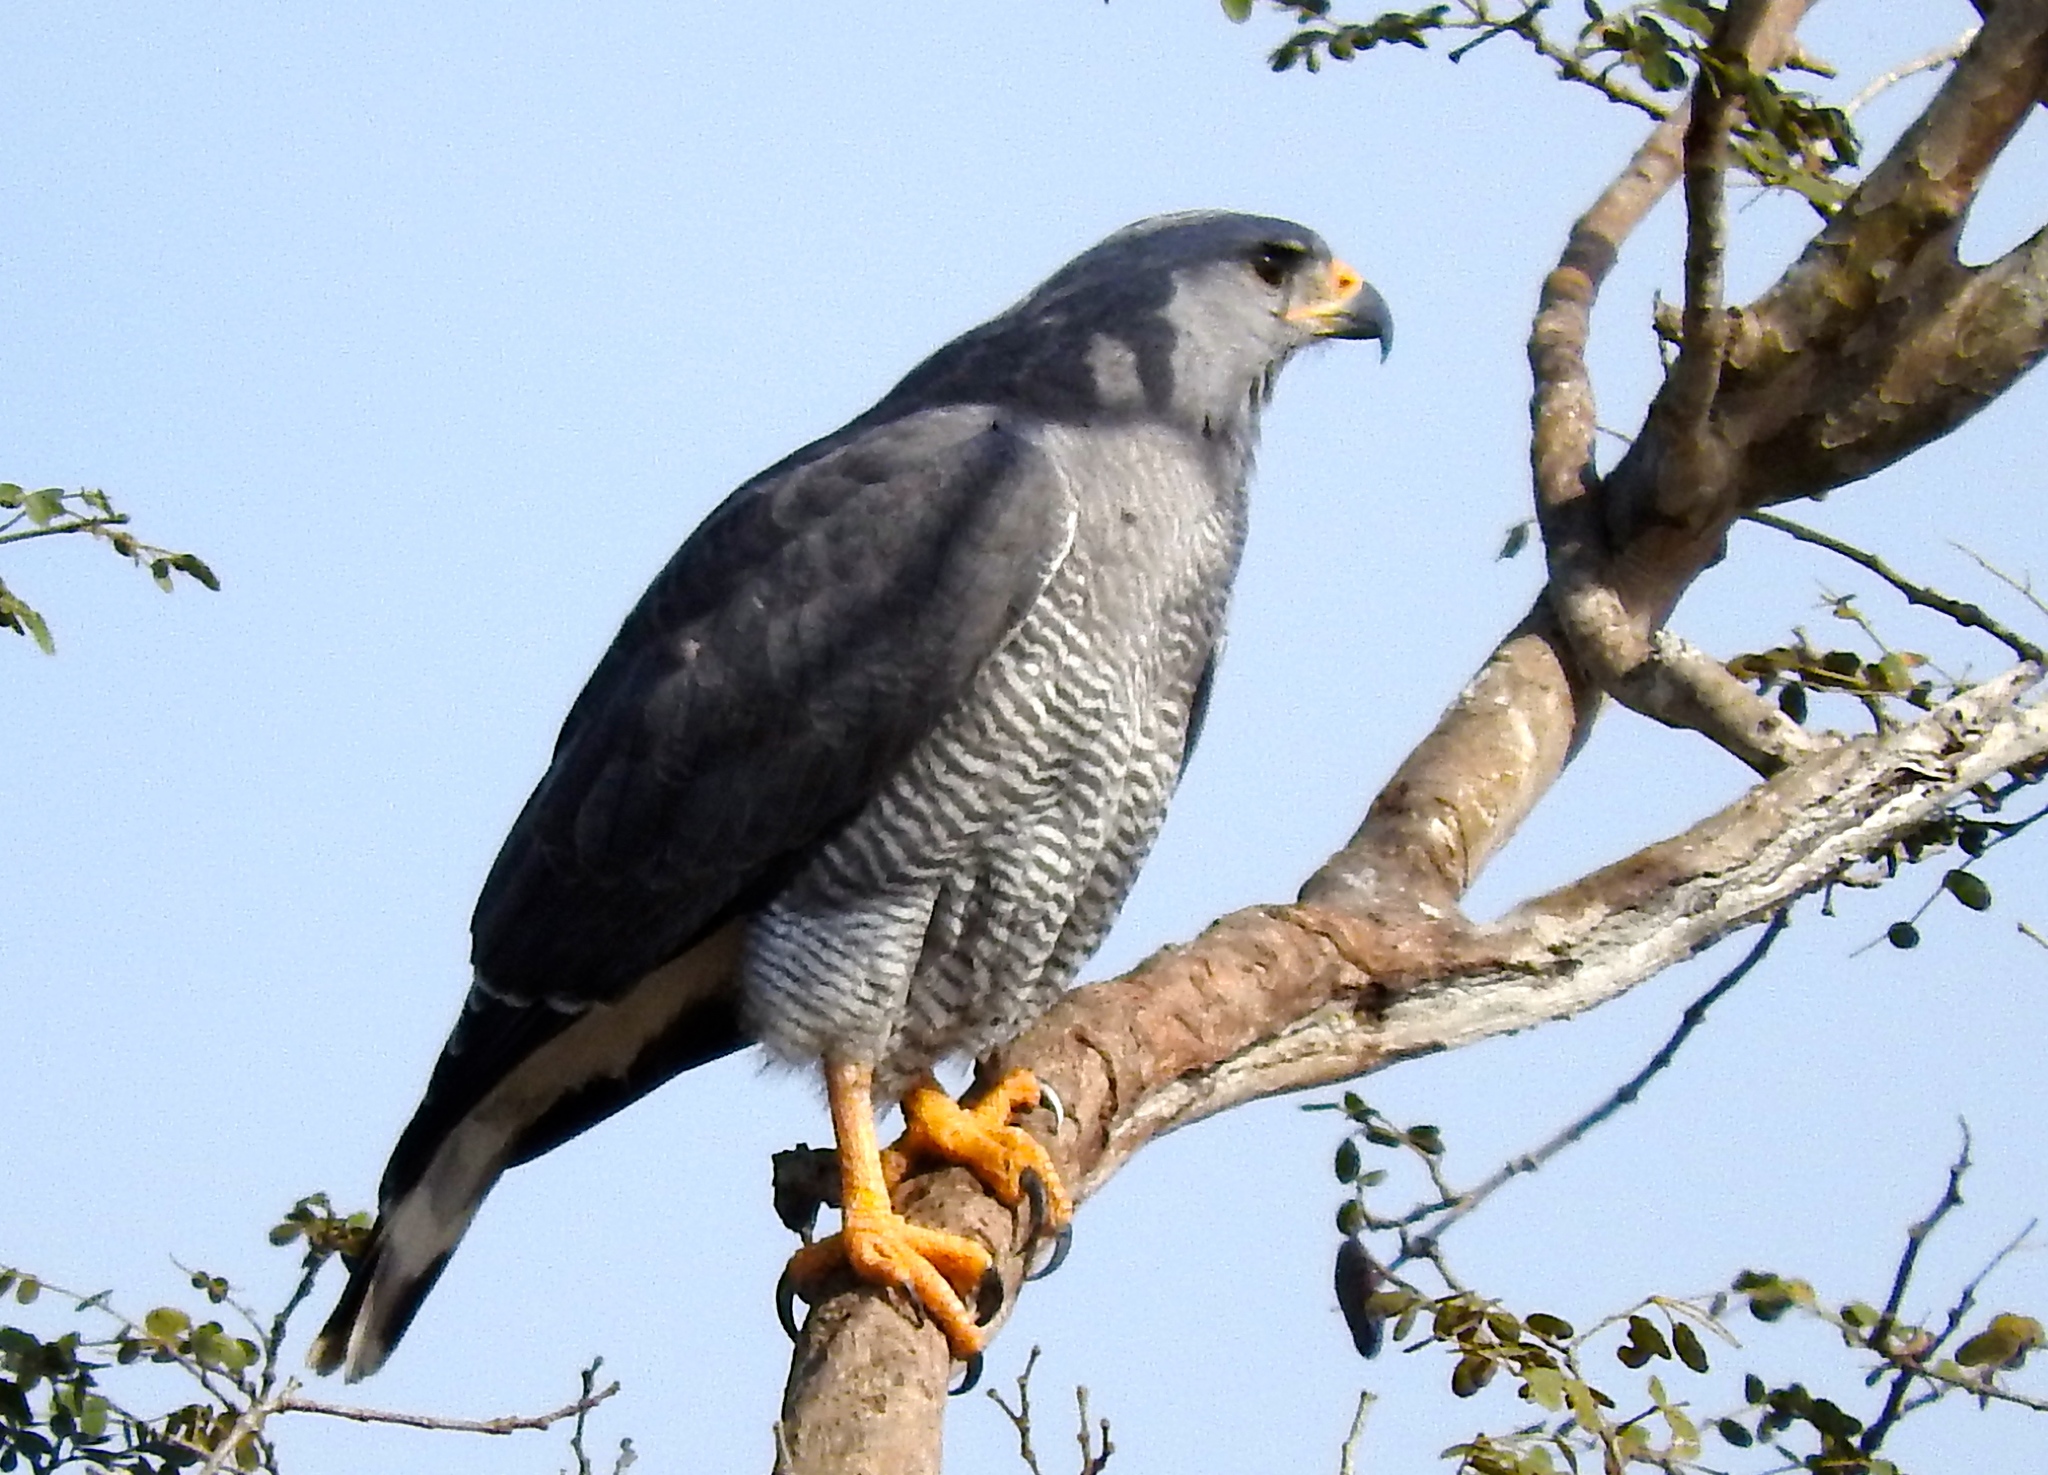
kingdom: Animalia
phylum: Chordata
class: Aves
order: Accipitriformes
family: Accipitridae
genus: Buteo
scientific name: Buteo nitidus
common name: Grey-lined hawk
